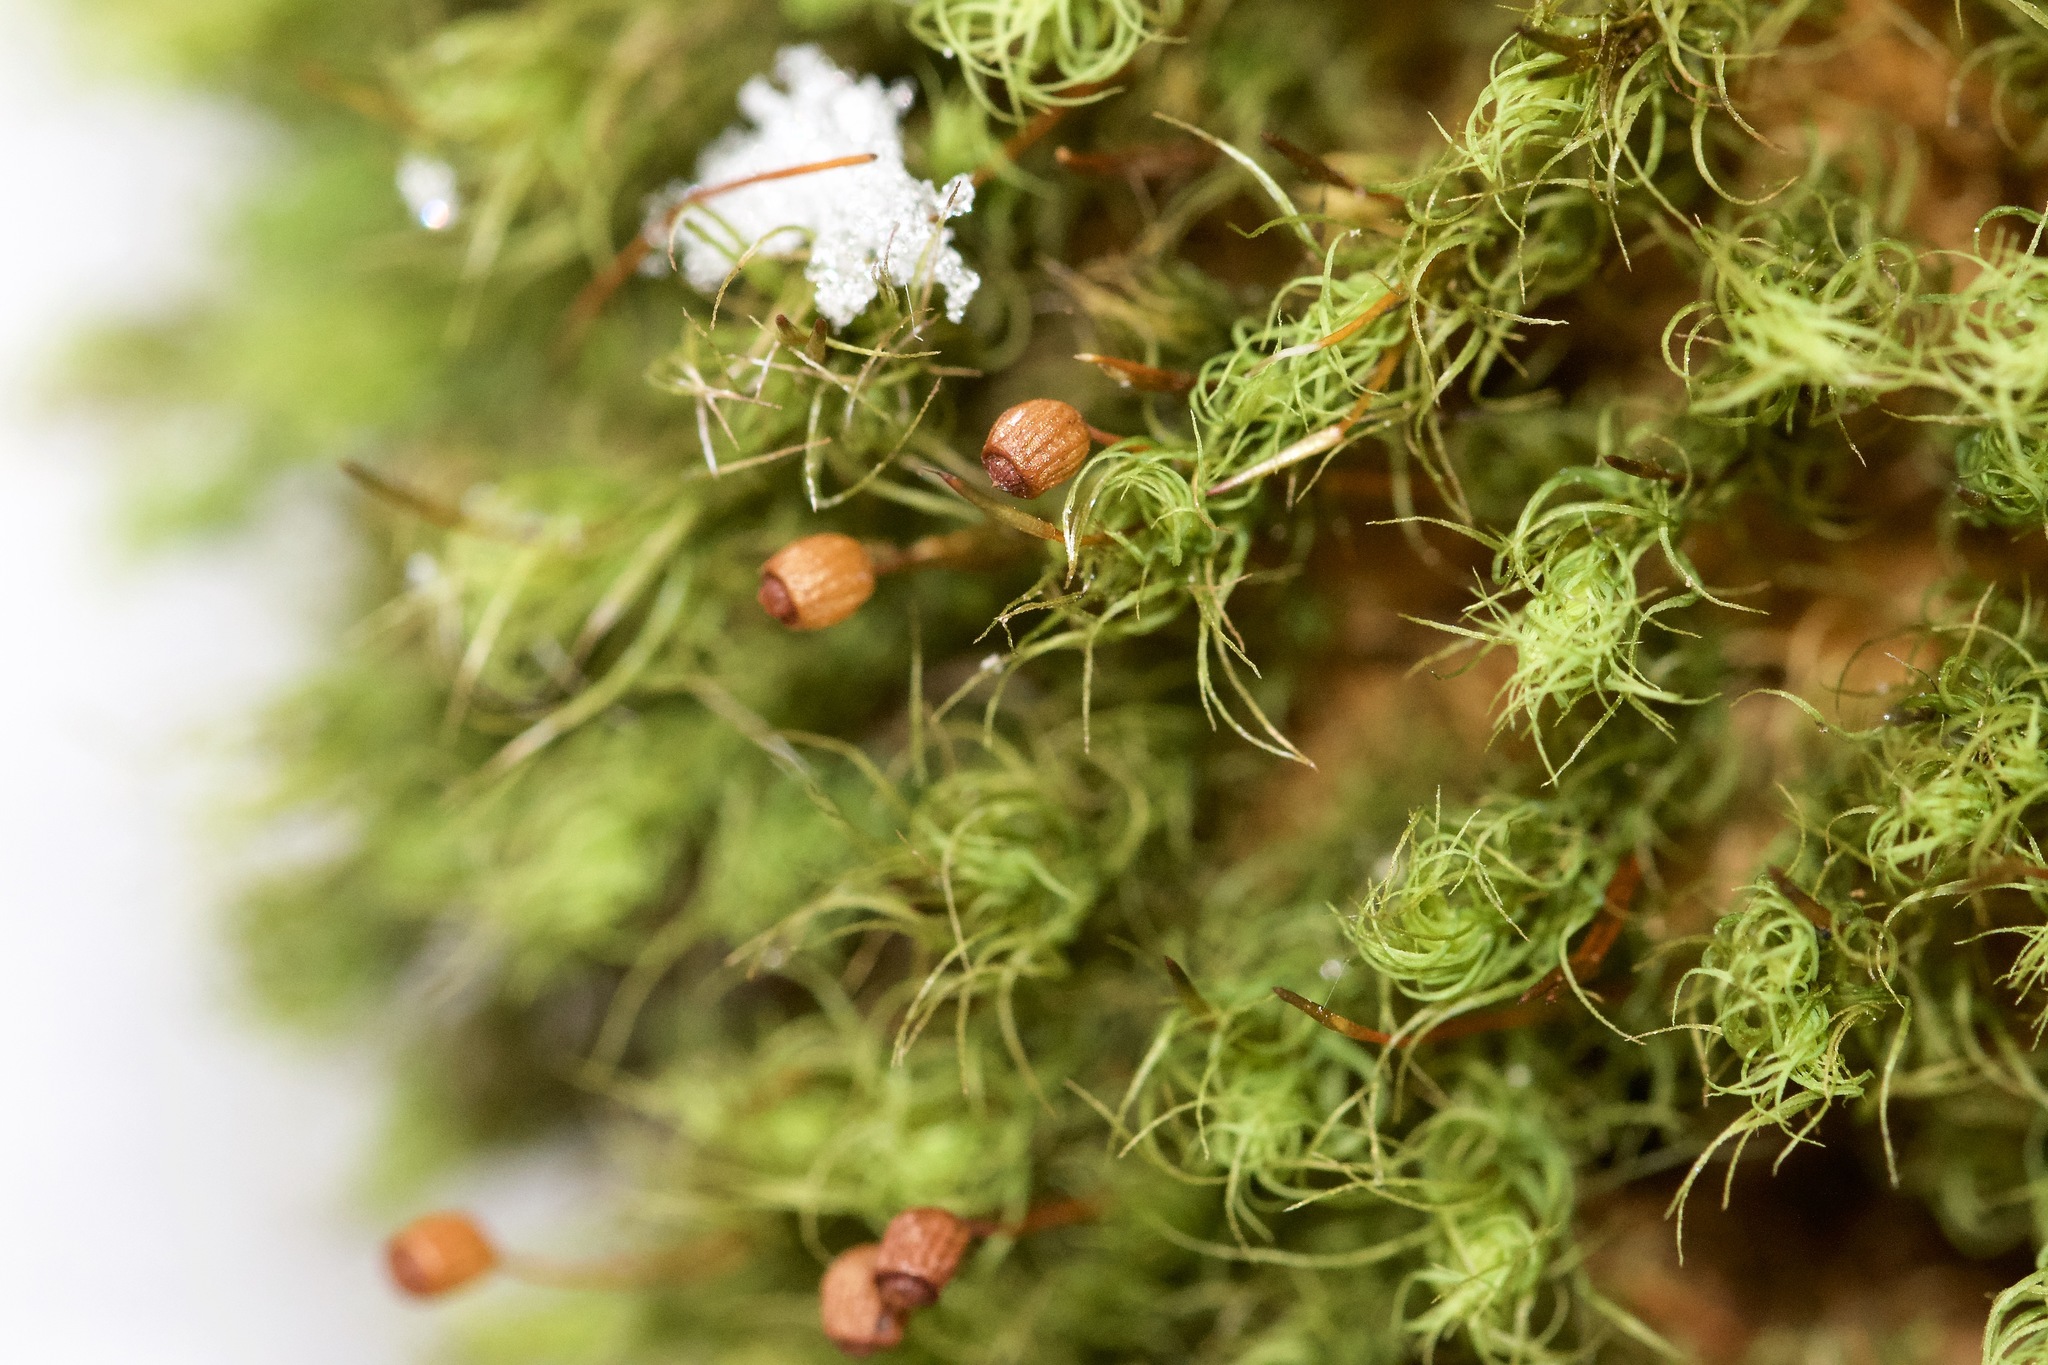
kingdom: Plantae
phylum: Bryophyta
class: Bryopsida
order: Bartramiales
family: Bartramiaceae
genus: Bartramia
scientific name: Bartramia ithyphylla
